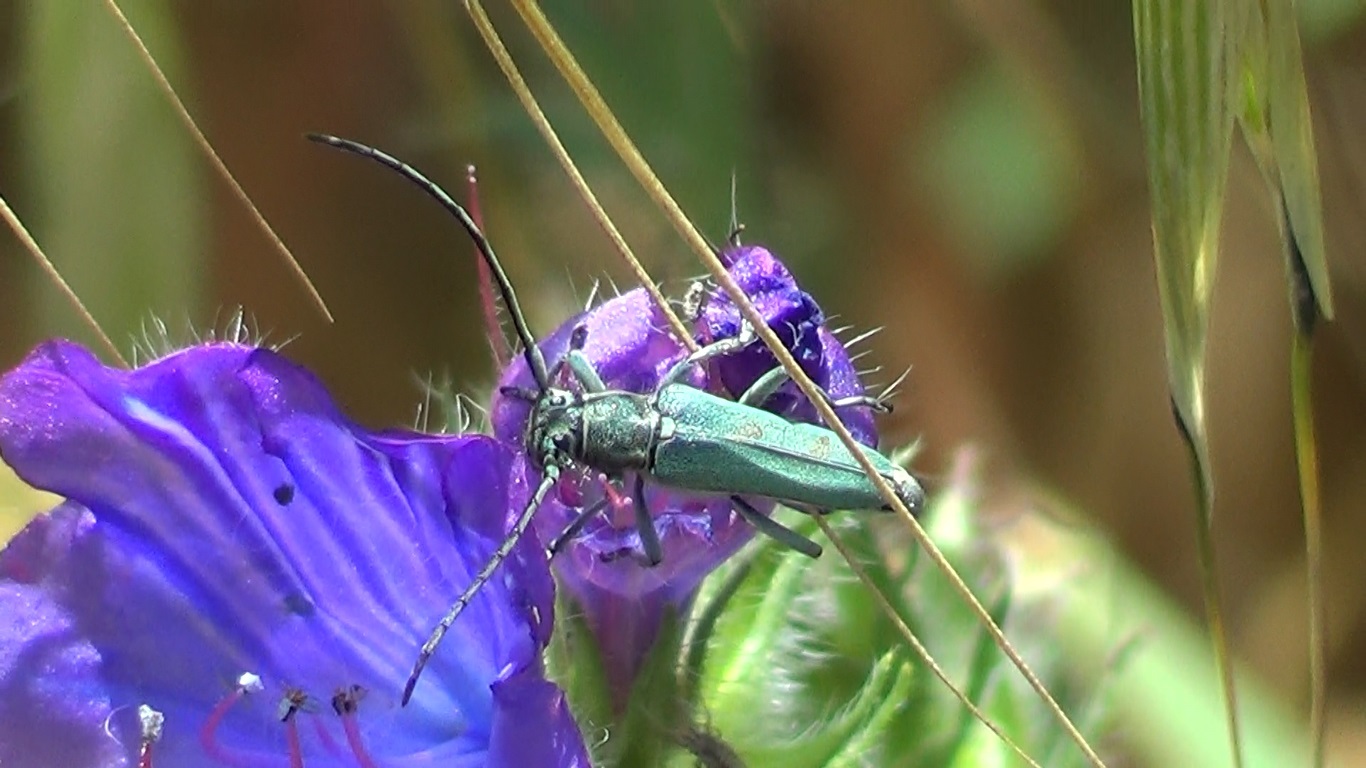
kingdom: Animalia
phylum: Arthropoda
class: Insecta
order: Coleoptera
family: Cerambycidae
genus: Phytoecia
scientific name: Phytoecia coerulescens
